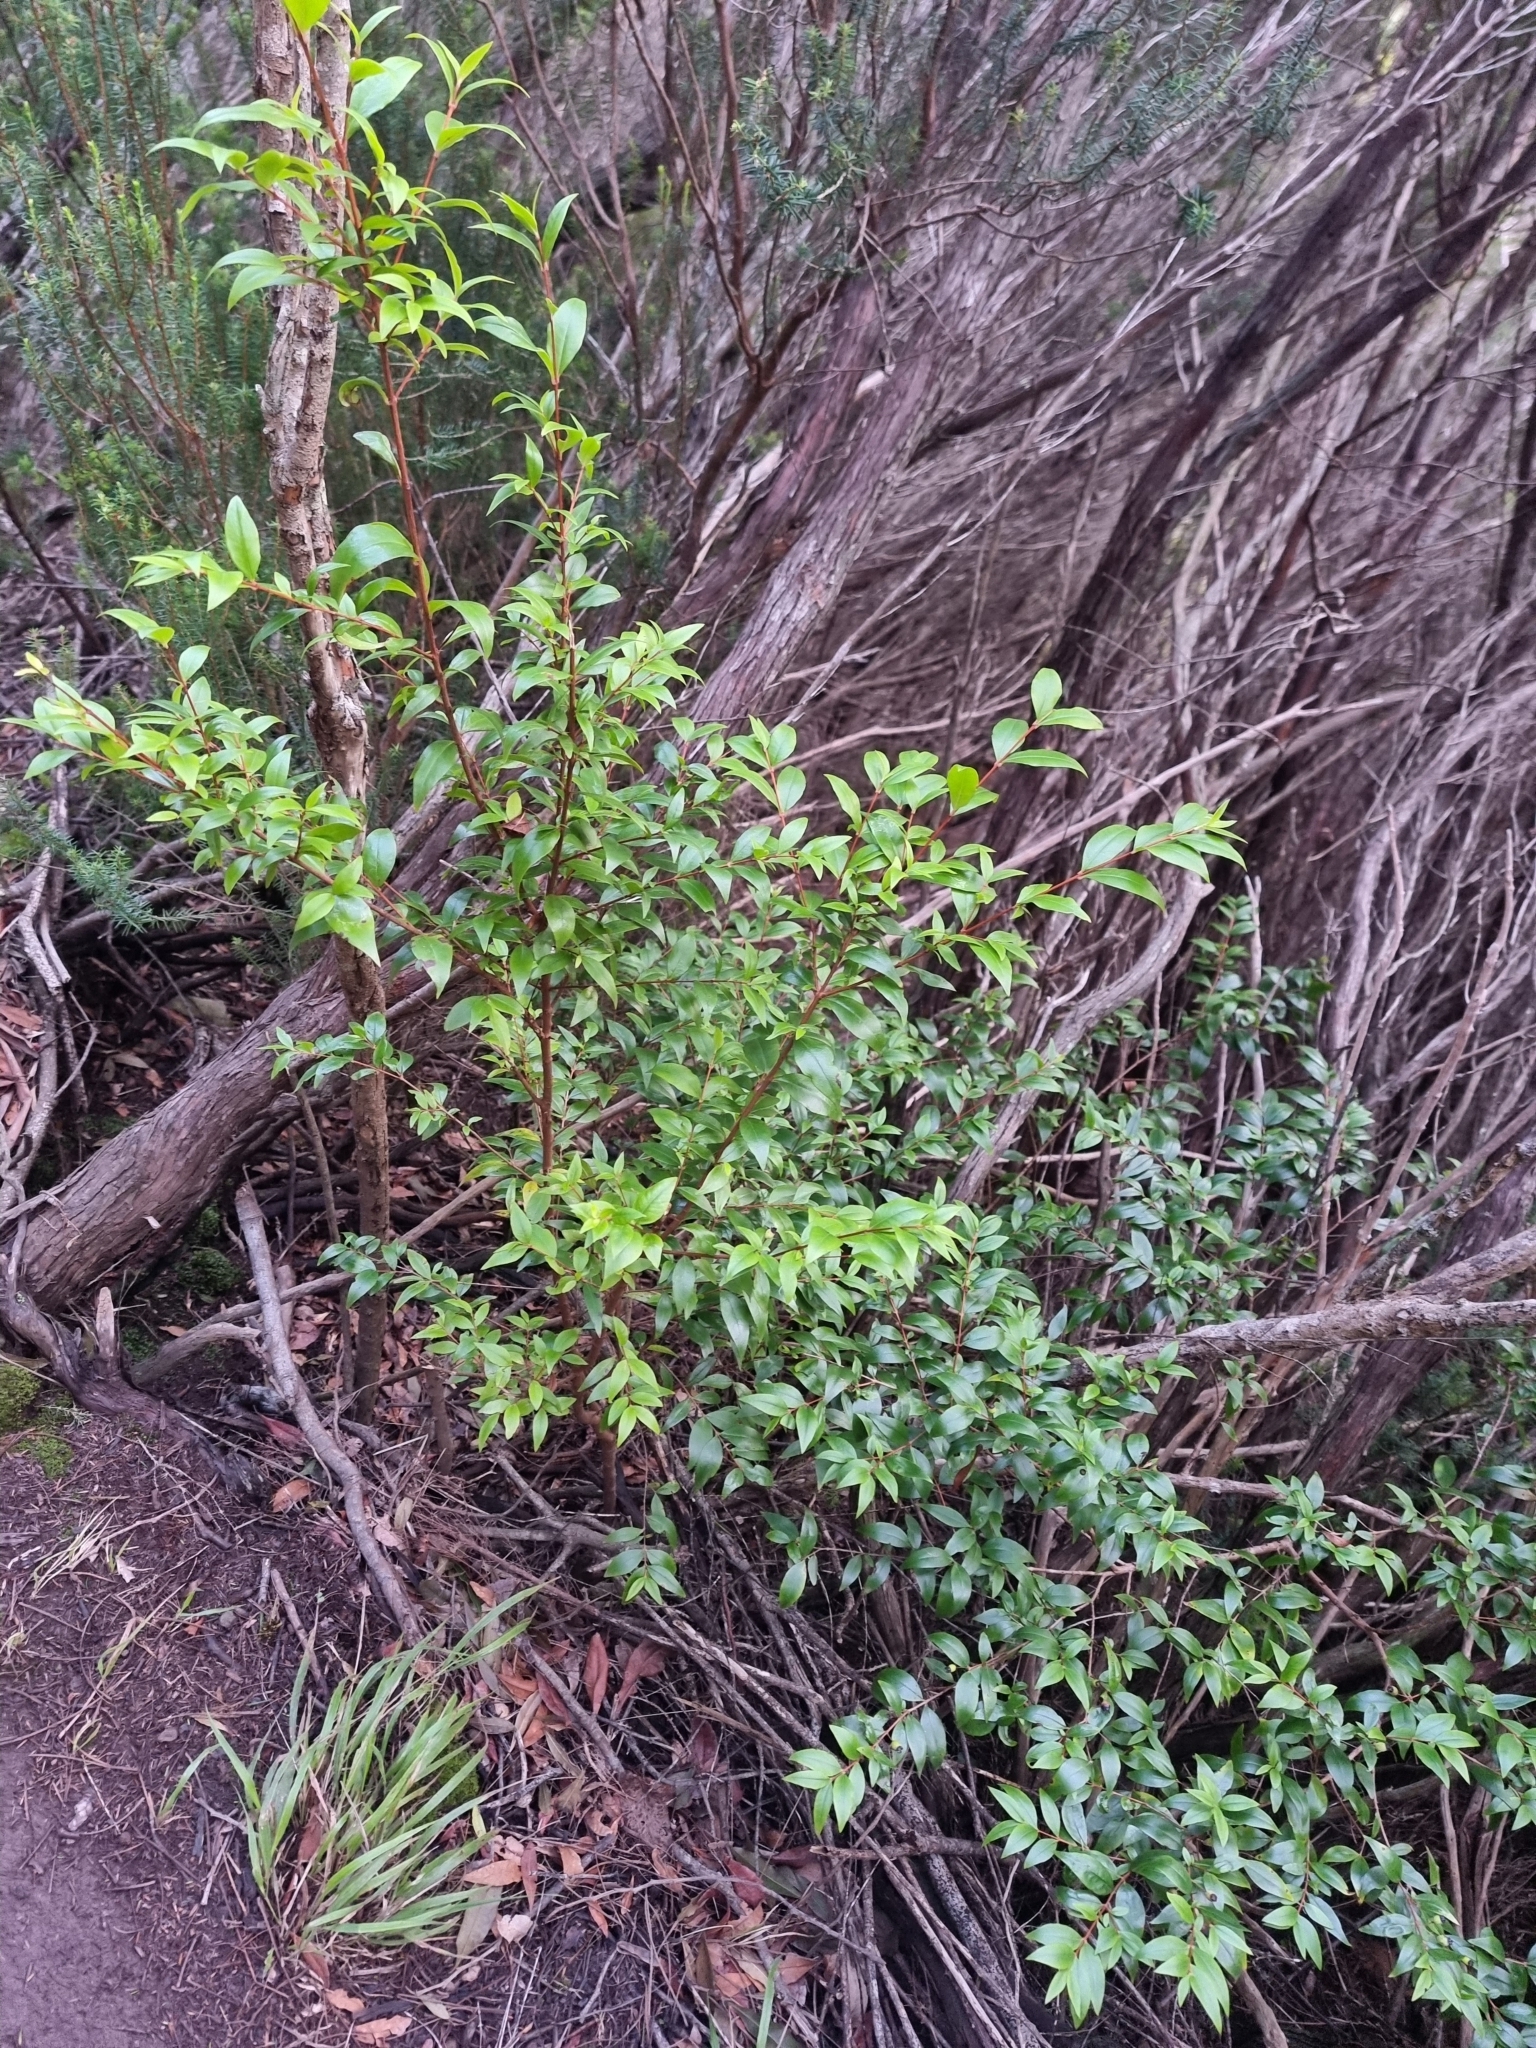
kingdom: Plantae
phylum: Tracheophyta
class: Magnoliopsida
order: Myrtales
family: Myrtaceae
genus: Myrtus
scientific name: Myrtus communis
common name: Myrtle
